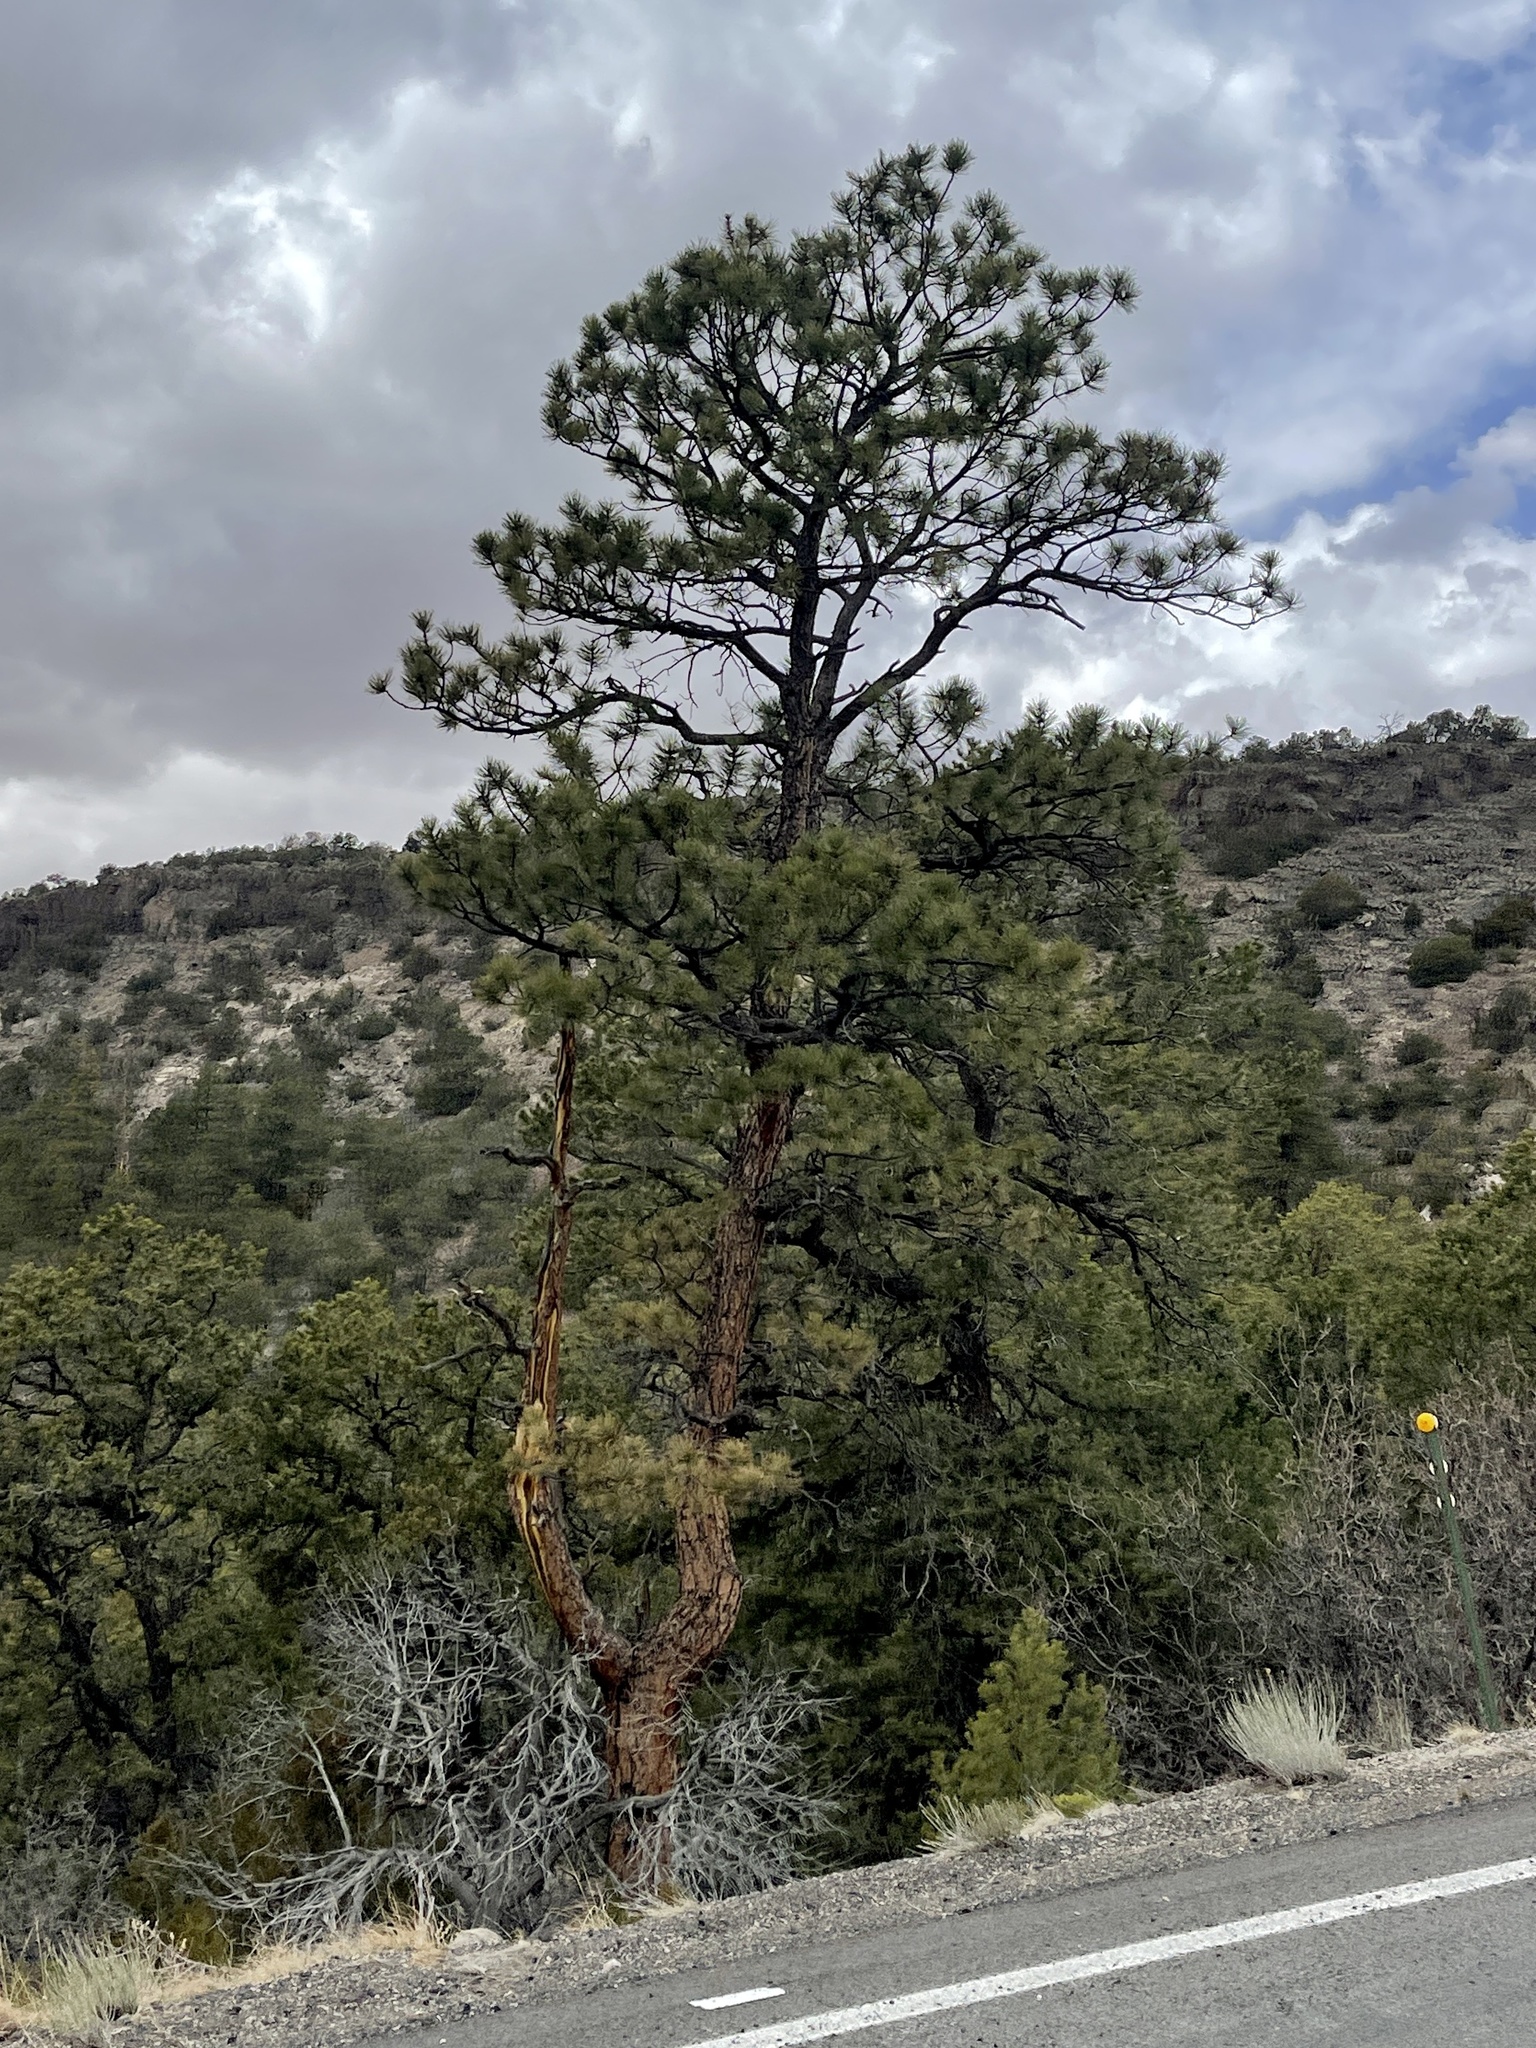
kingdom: Plantae
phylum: Tracheophyta
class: Pinopsida
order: Pinales
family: Pinaceae
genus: Pinus
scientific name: Pinus ponderosa
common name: Western yellow-pine
